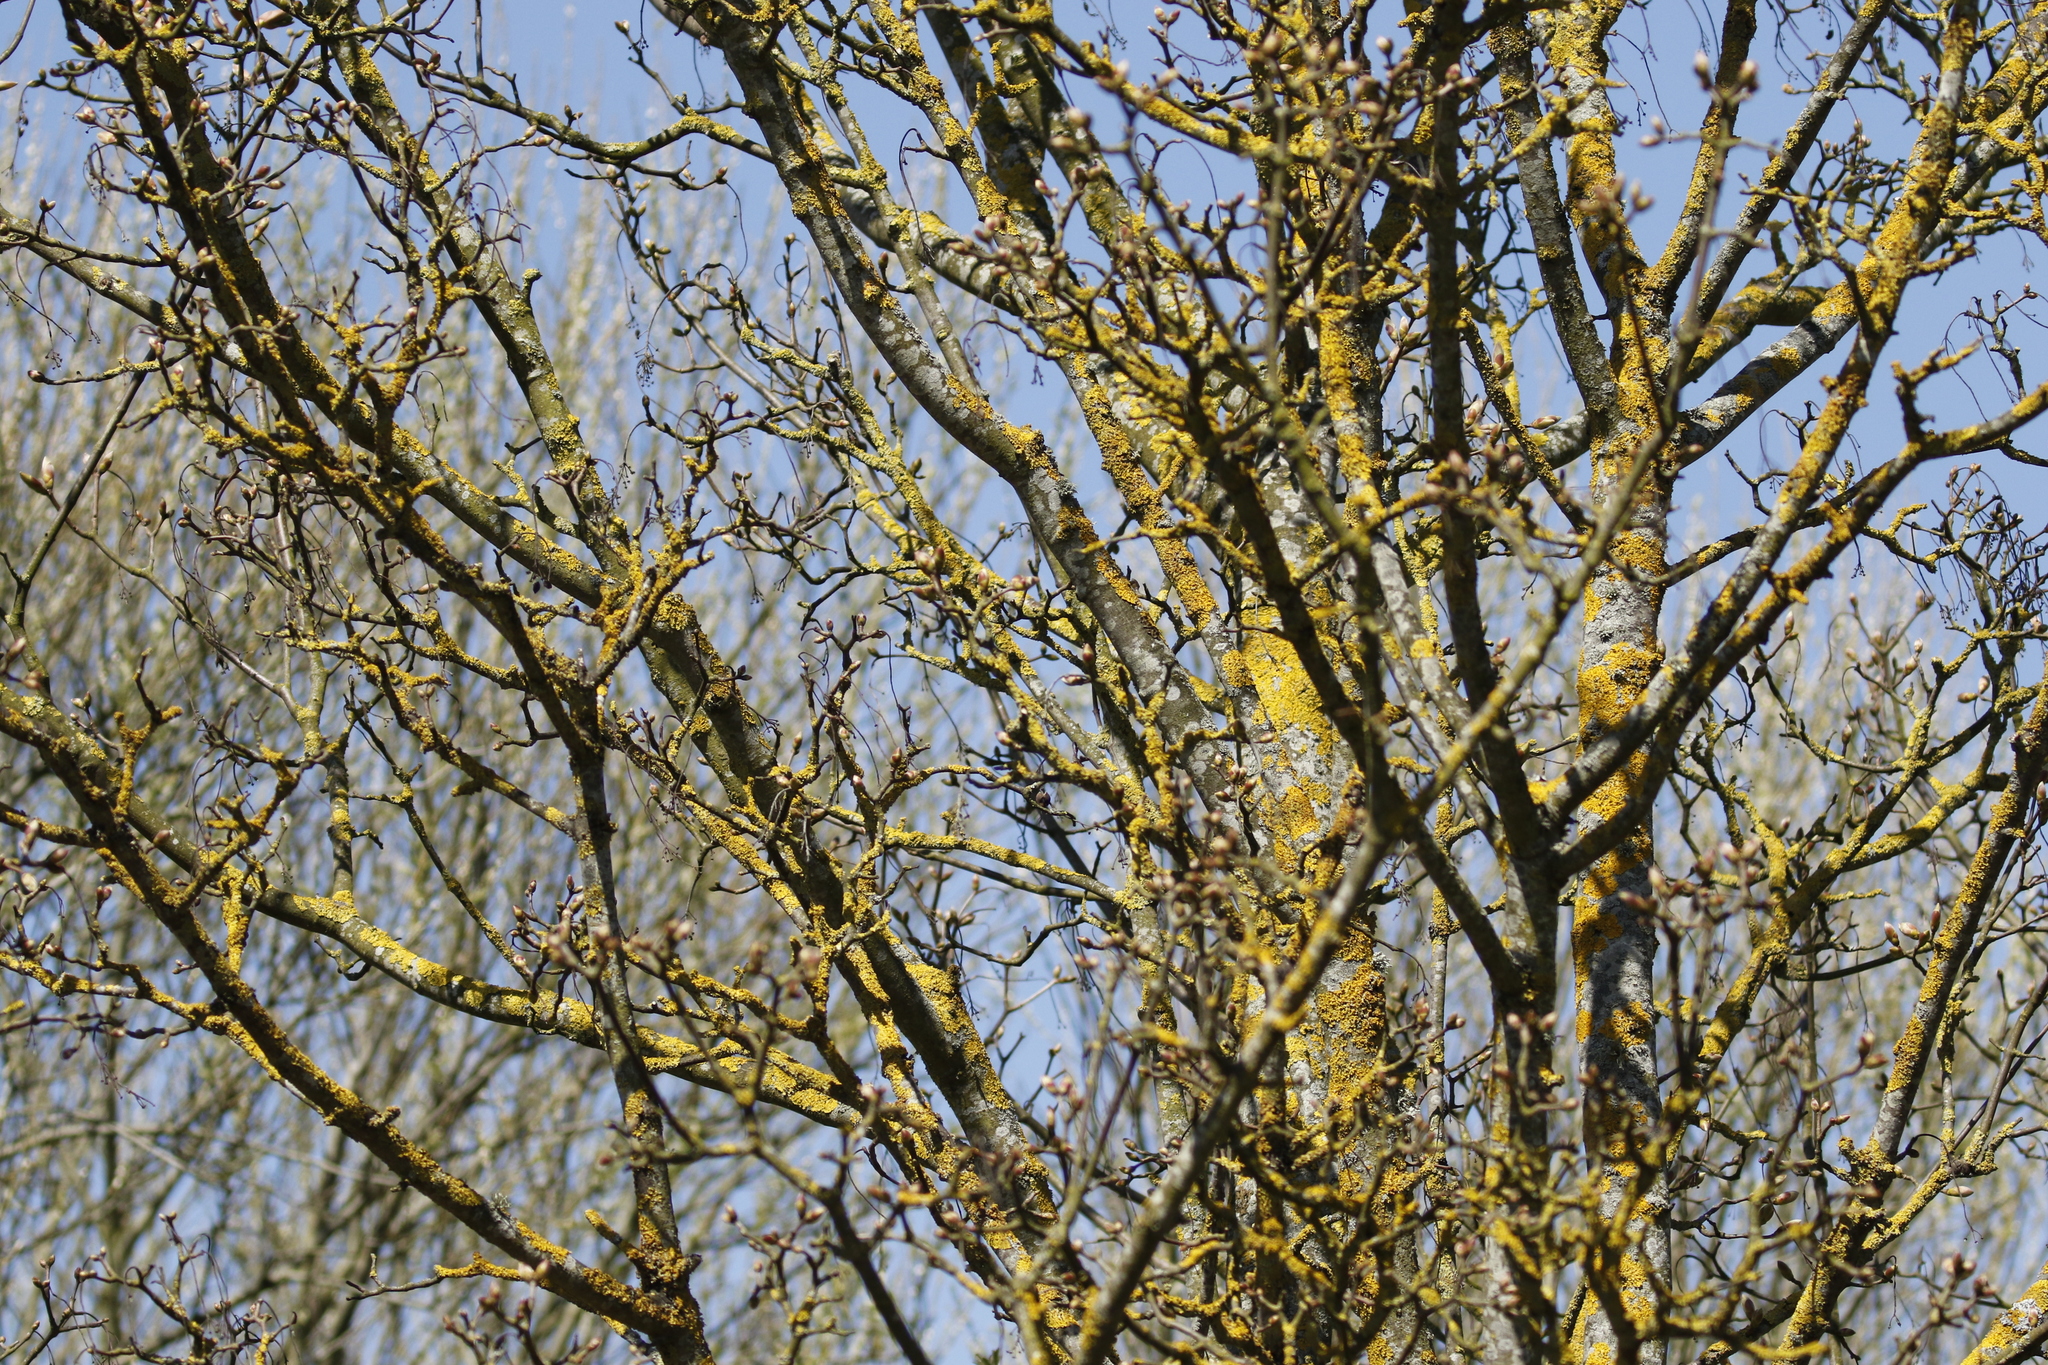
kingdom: Fungi
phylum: Ascomycota
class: Lecanoromycetes
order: Teloschistales
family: Teloschistaceae
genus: Xanthoria
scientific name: Xanthoria parietina
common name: Common orange lichen
